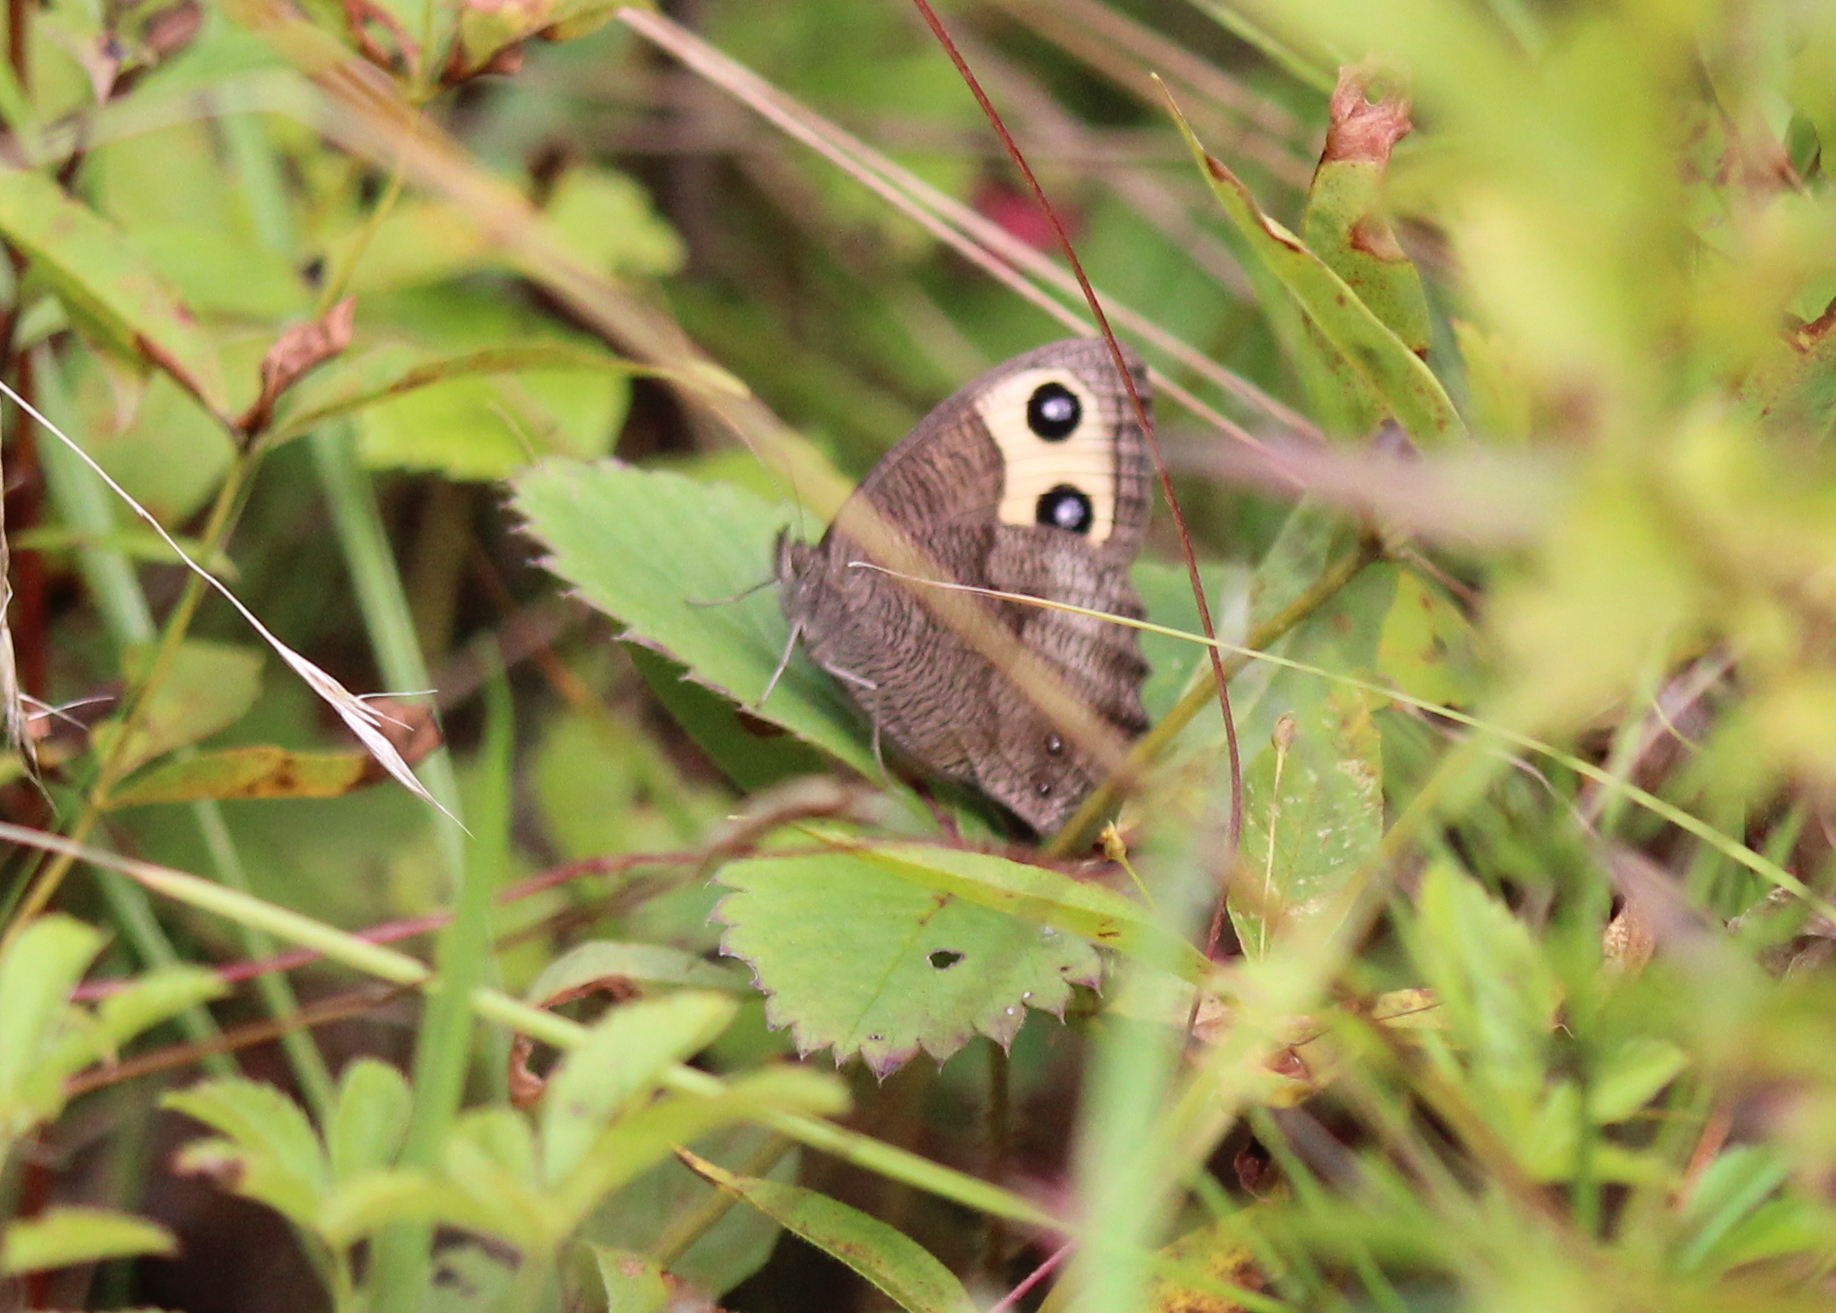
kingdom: Animalia
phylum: Arthropoda
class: Insecta
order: Lepidoptera
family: Nymphalidae
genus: Cercyonis
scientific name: Cercyonis pegala
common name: Common wood-nymph
